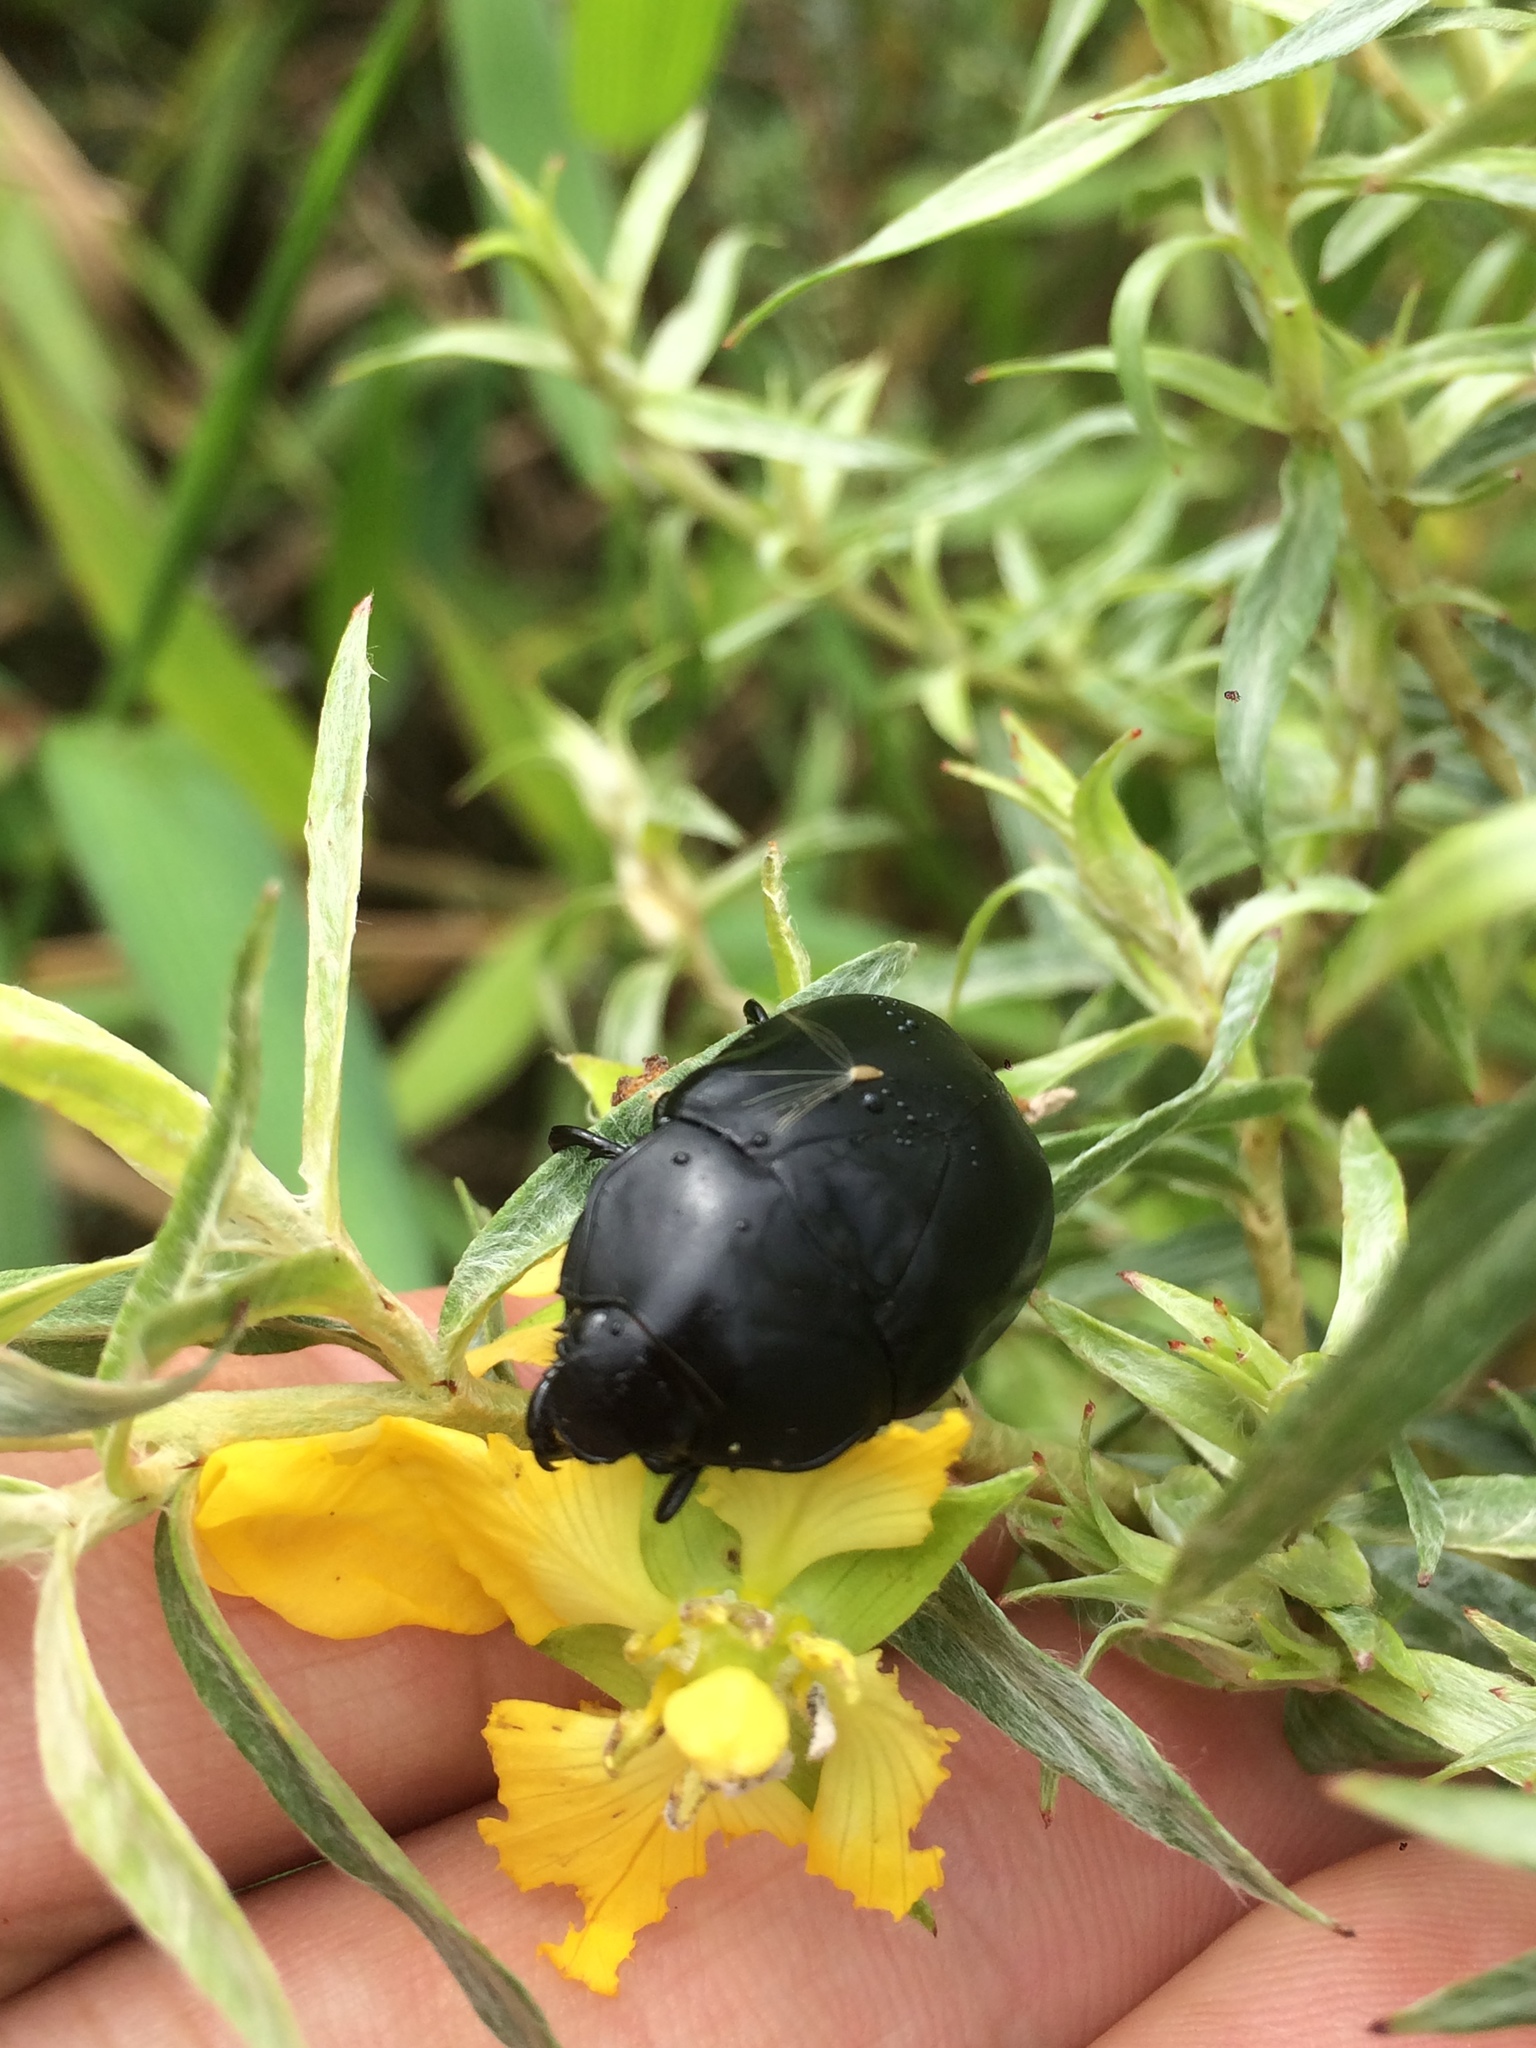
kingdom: Animalia
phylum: Arthropoda
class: Insecta
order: Coleoptera
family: Scarabaeidae
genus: Macraspis
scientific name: Macraspis morio
